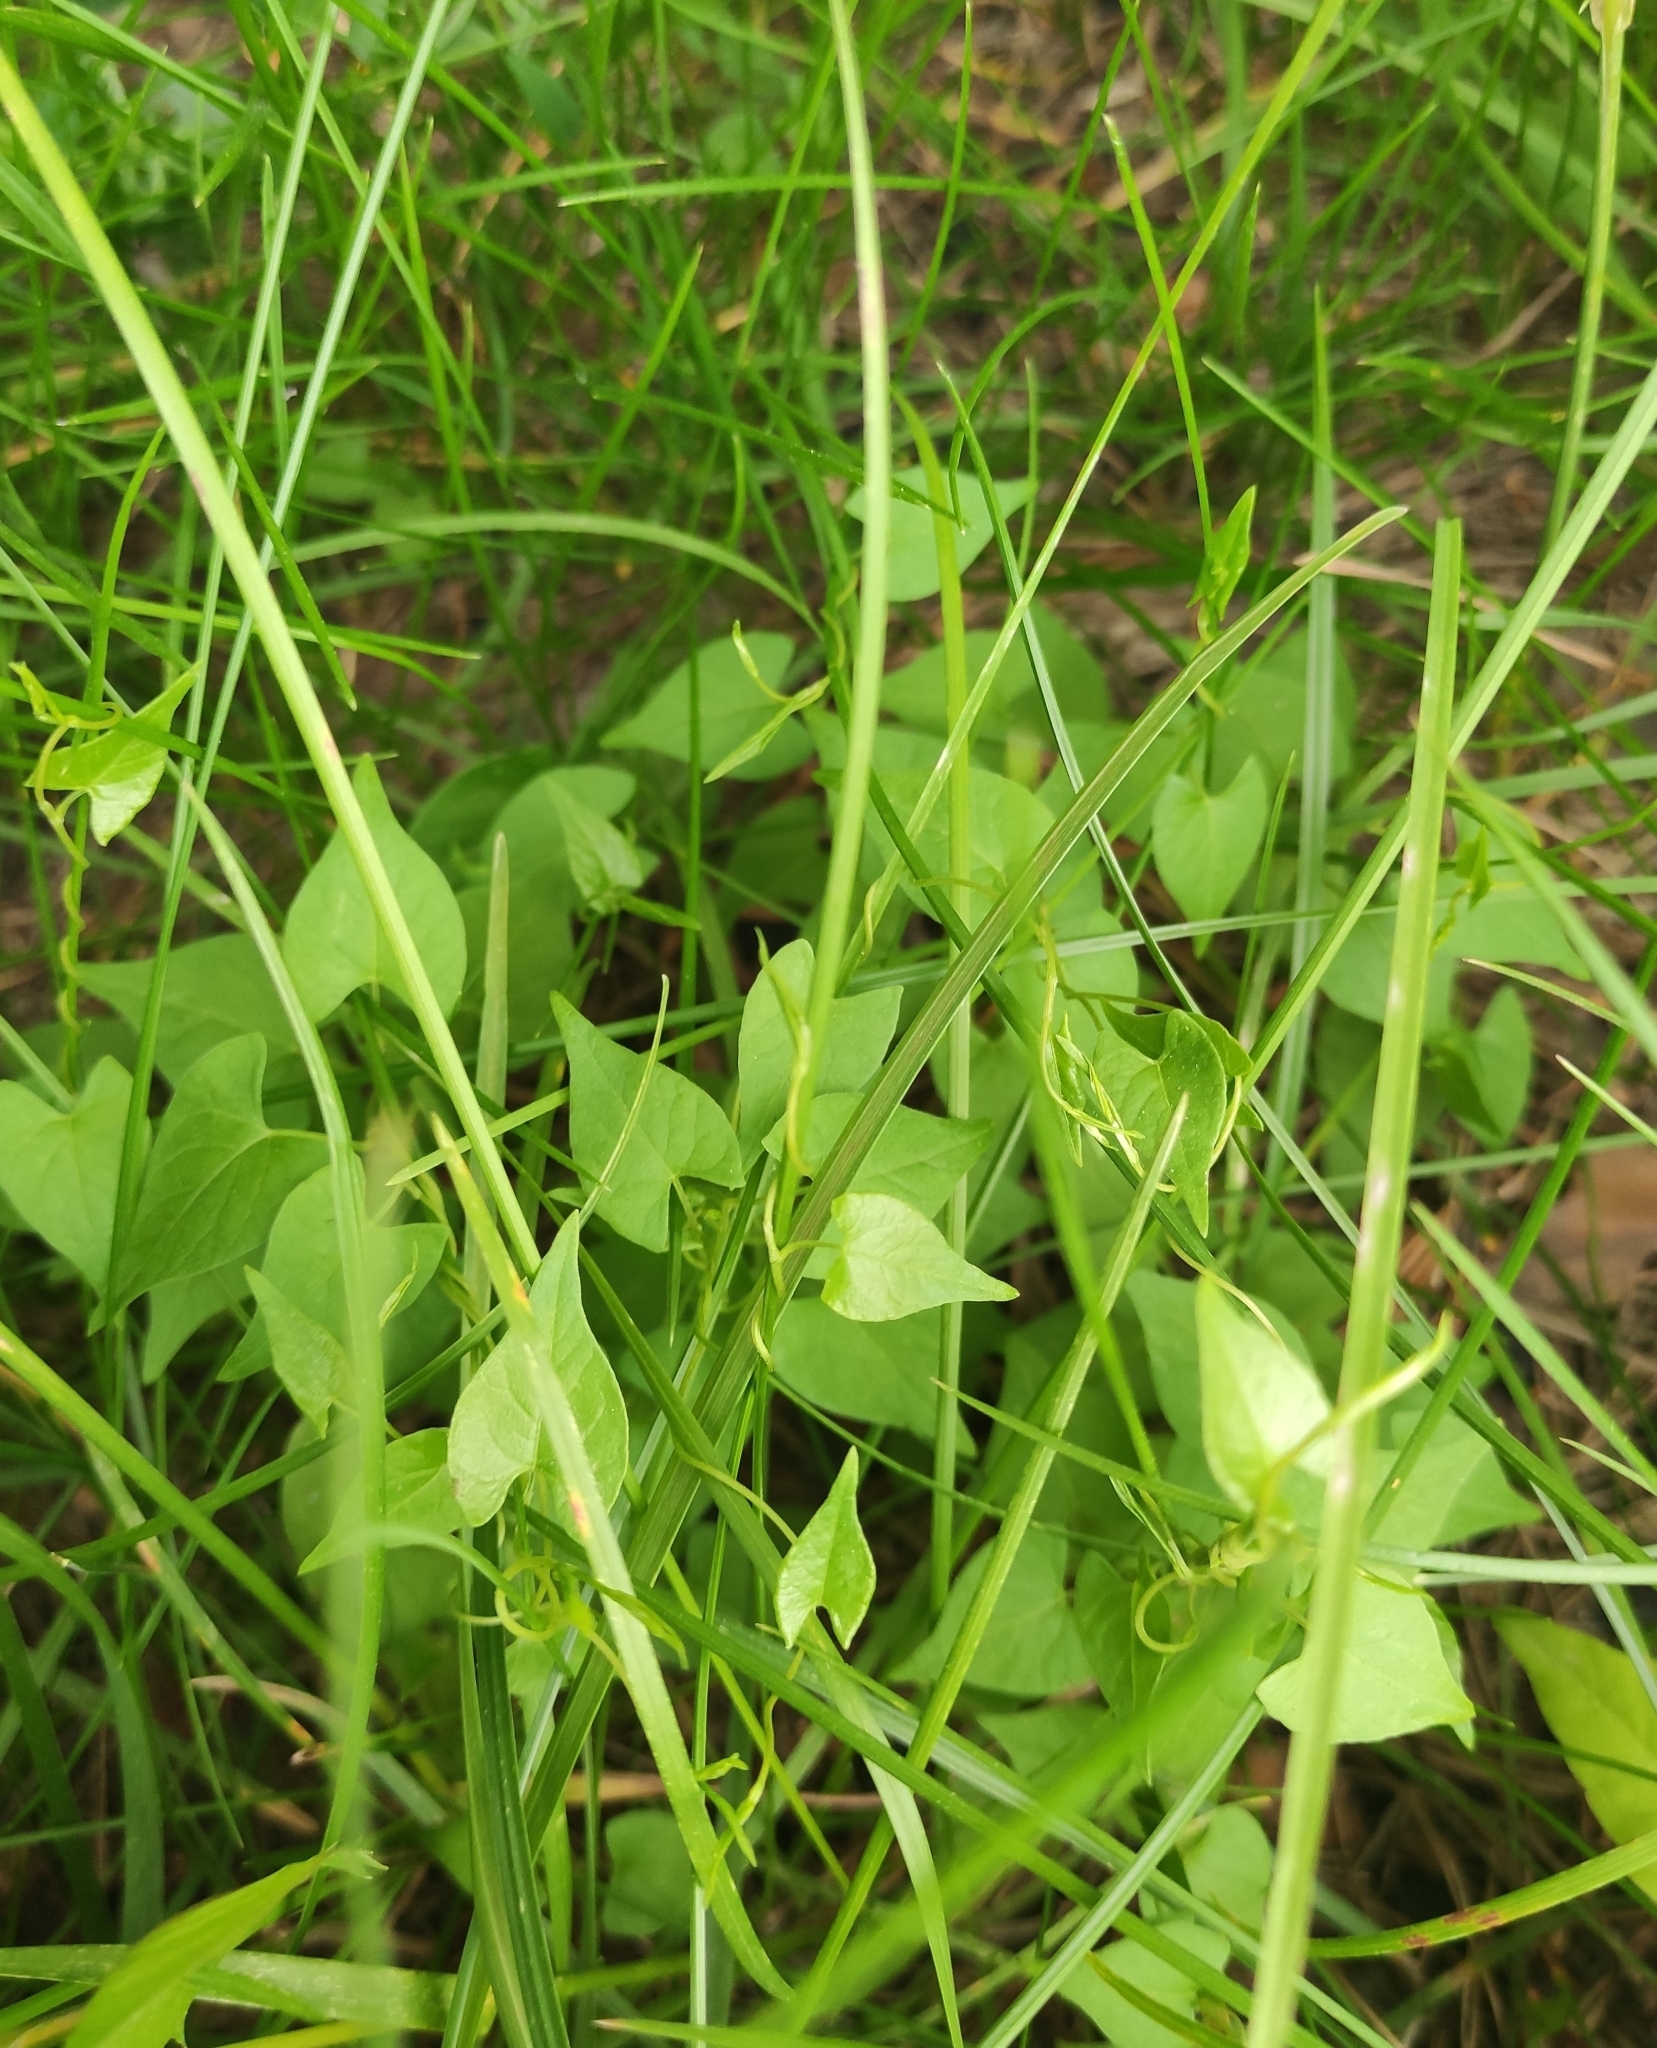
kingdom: Plantae
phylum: Tracheophyta
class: Magnoliopsida
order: Caryophyllales
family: Polygonaceae
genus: Fallopia
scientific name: Fallopia convolvulus
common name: Black bindweed
